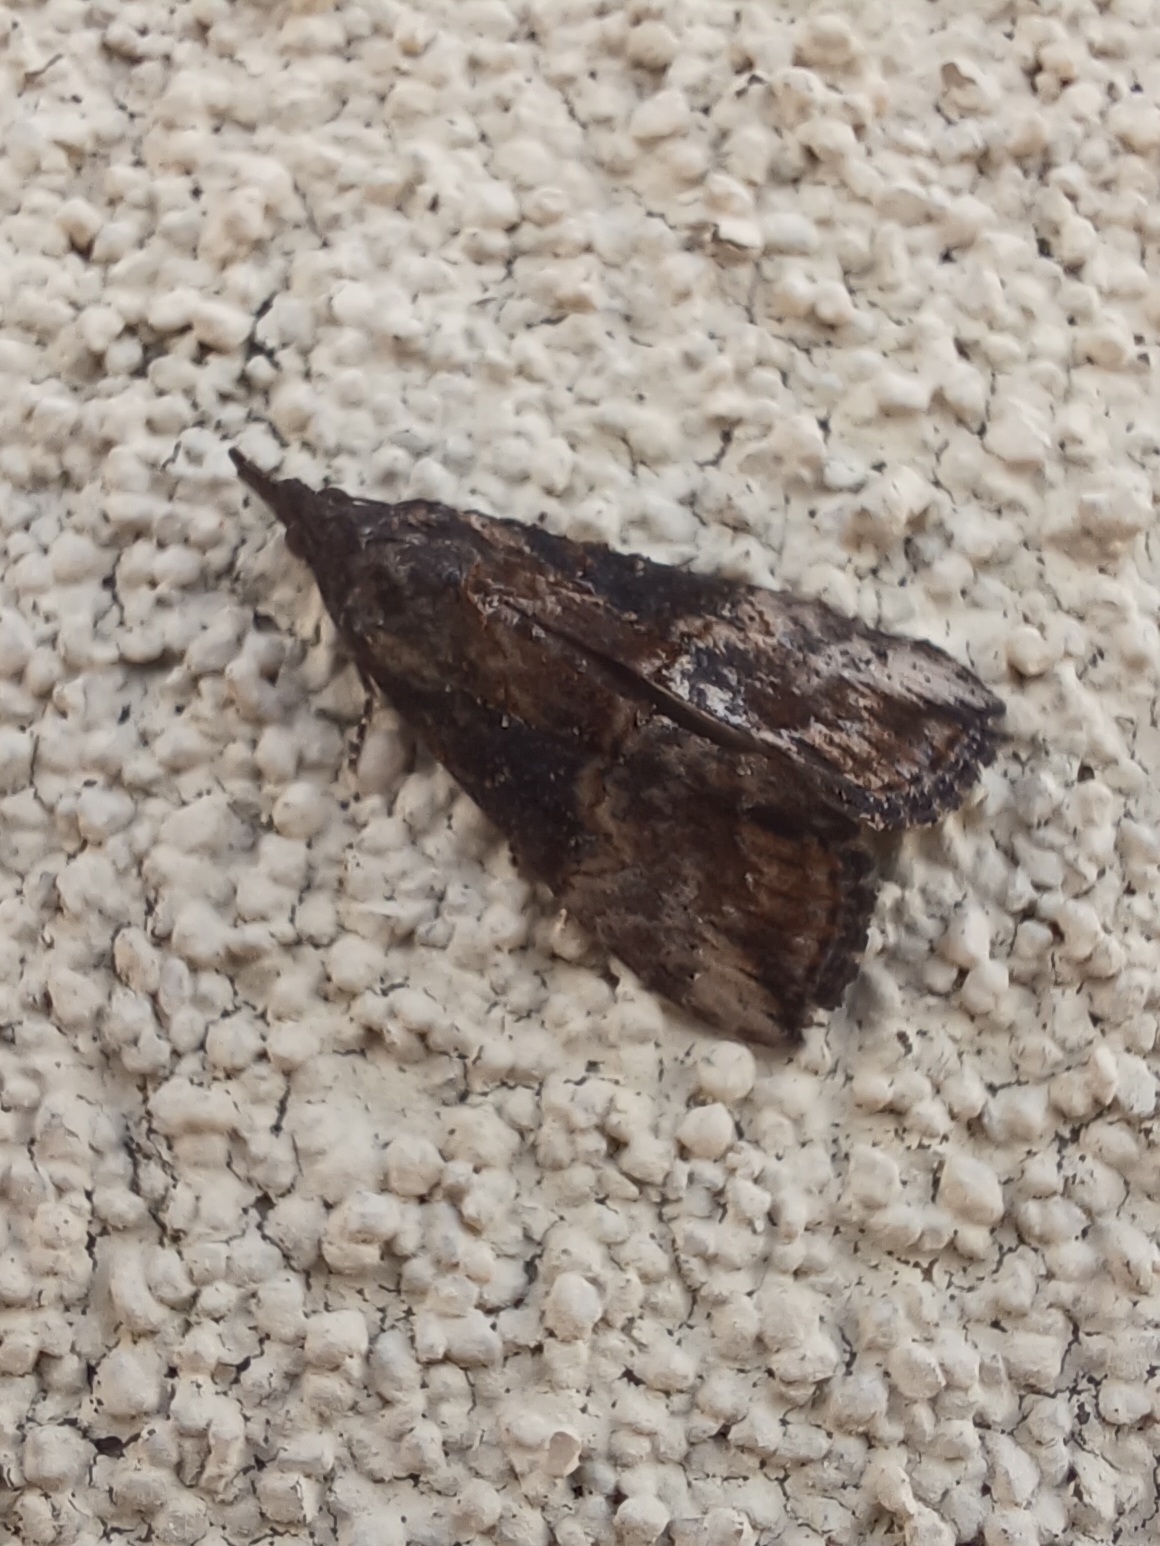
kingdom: Animalia
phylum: Arthropoda
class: Insecta
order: Lepidoptera
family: Erebidae
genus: Hypena
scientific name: Hypena scabra
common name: Green cloverworm
